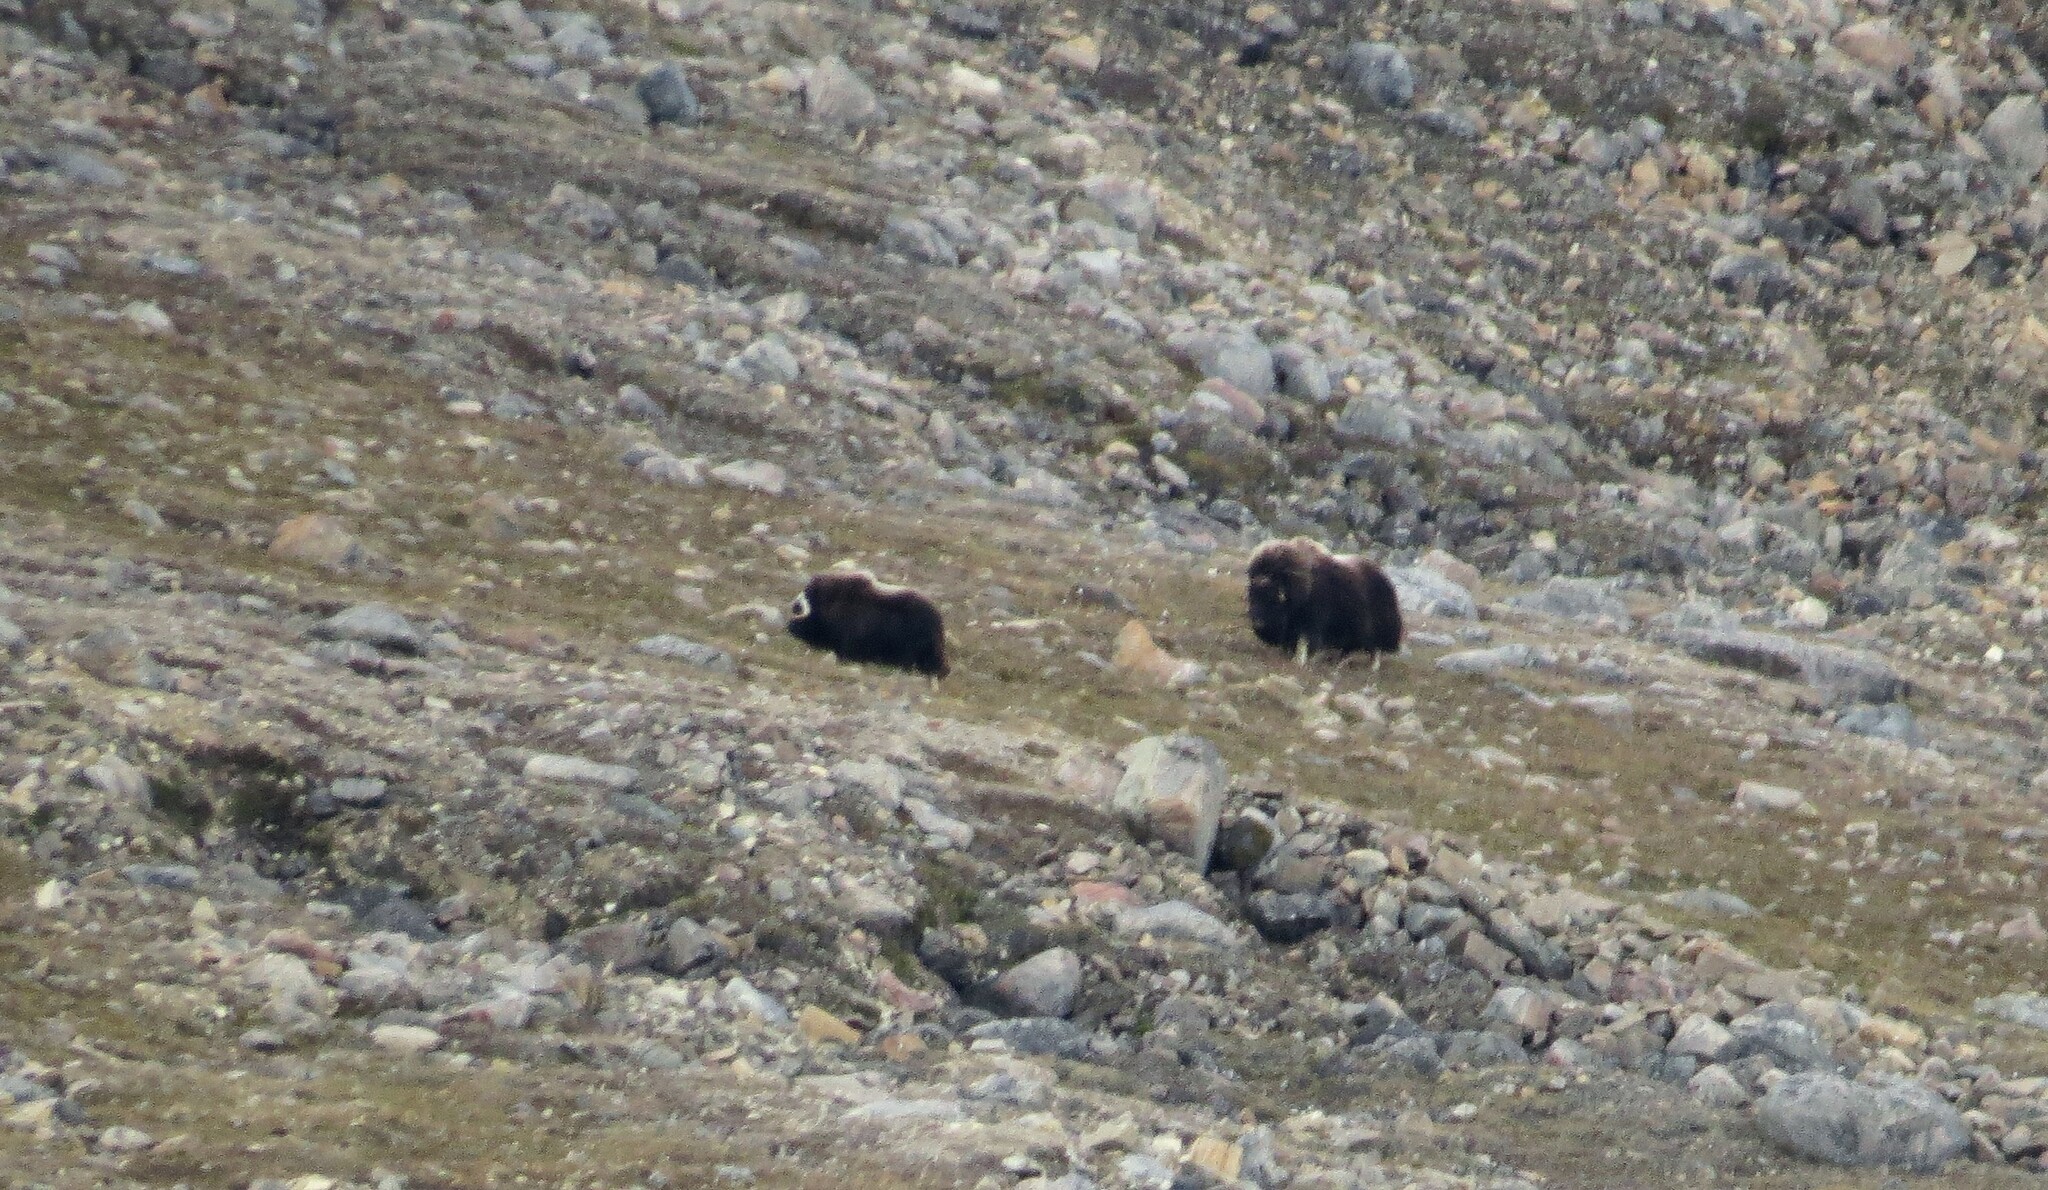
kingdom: Animalia
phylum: Chordata
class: Mammalia
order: Artiodactyla
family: Bovidae
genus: Ovibos
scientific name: Ovibos moschatus
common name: Muskox
